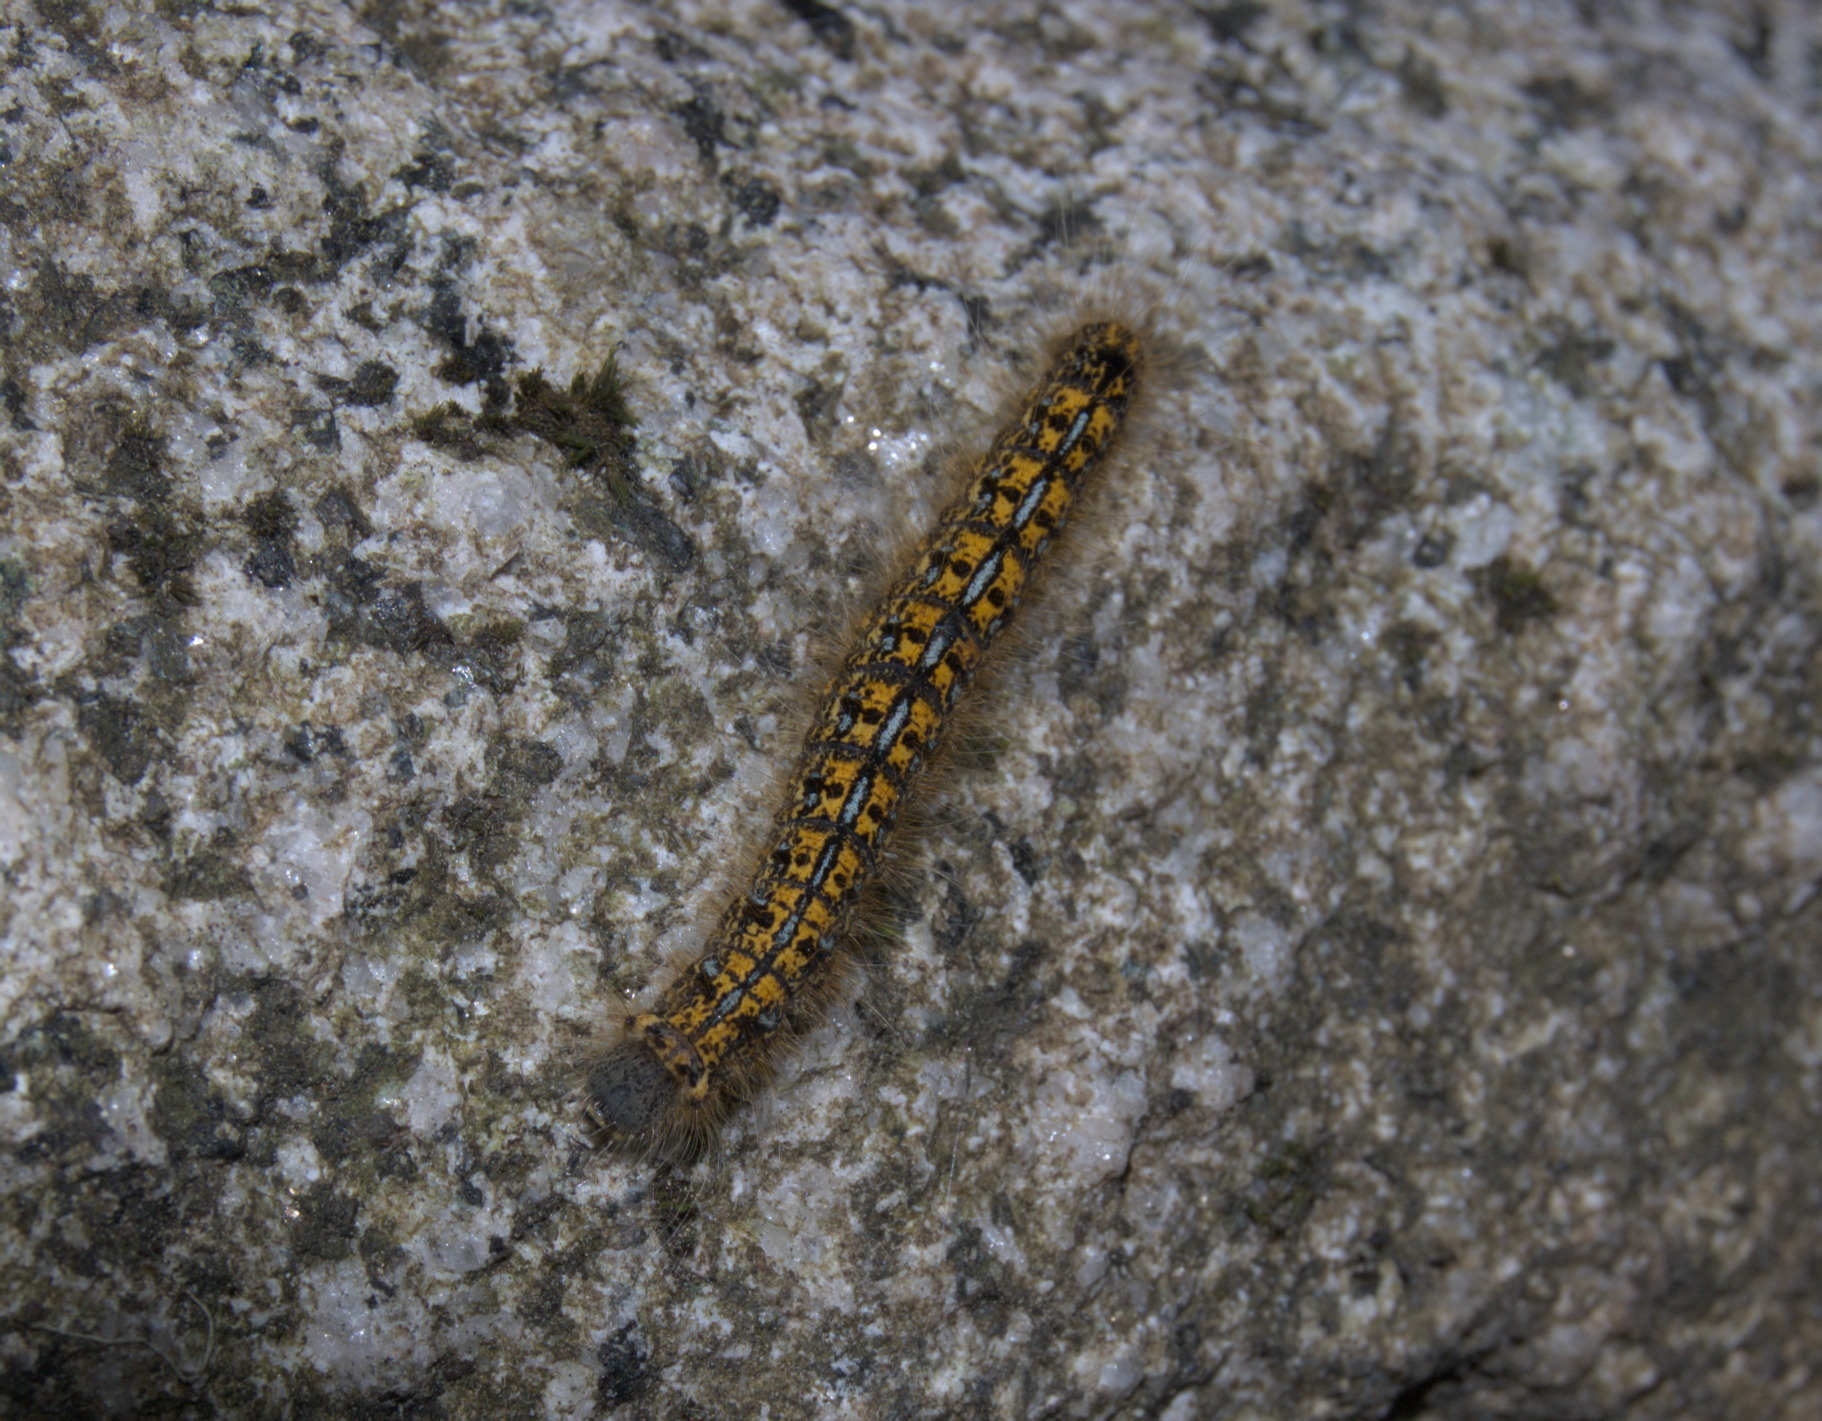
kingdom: Animalia
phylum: Arthropoda
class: Insecta
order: Lepidoptera
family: Lasiocampidae
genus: Malacosoma
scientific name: Malacosoma californica
